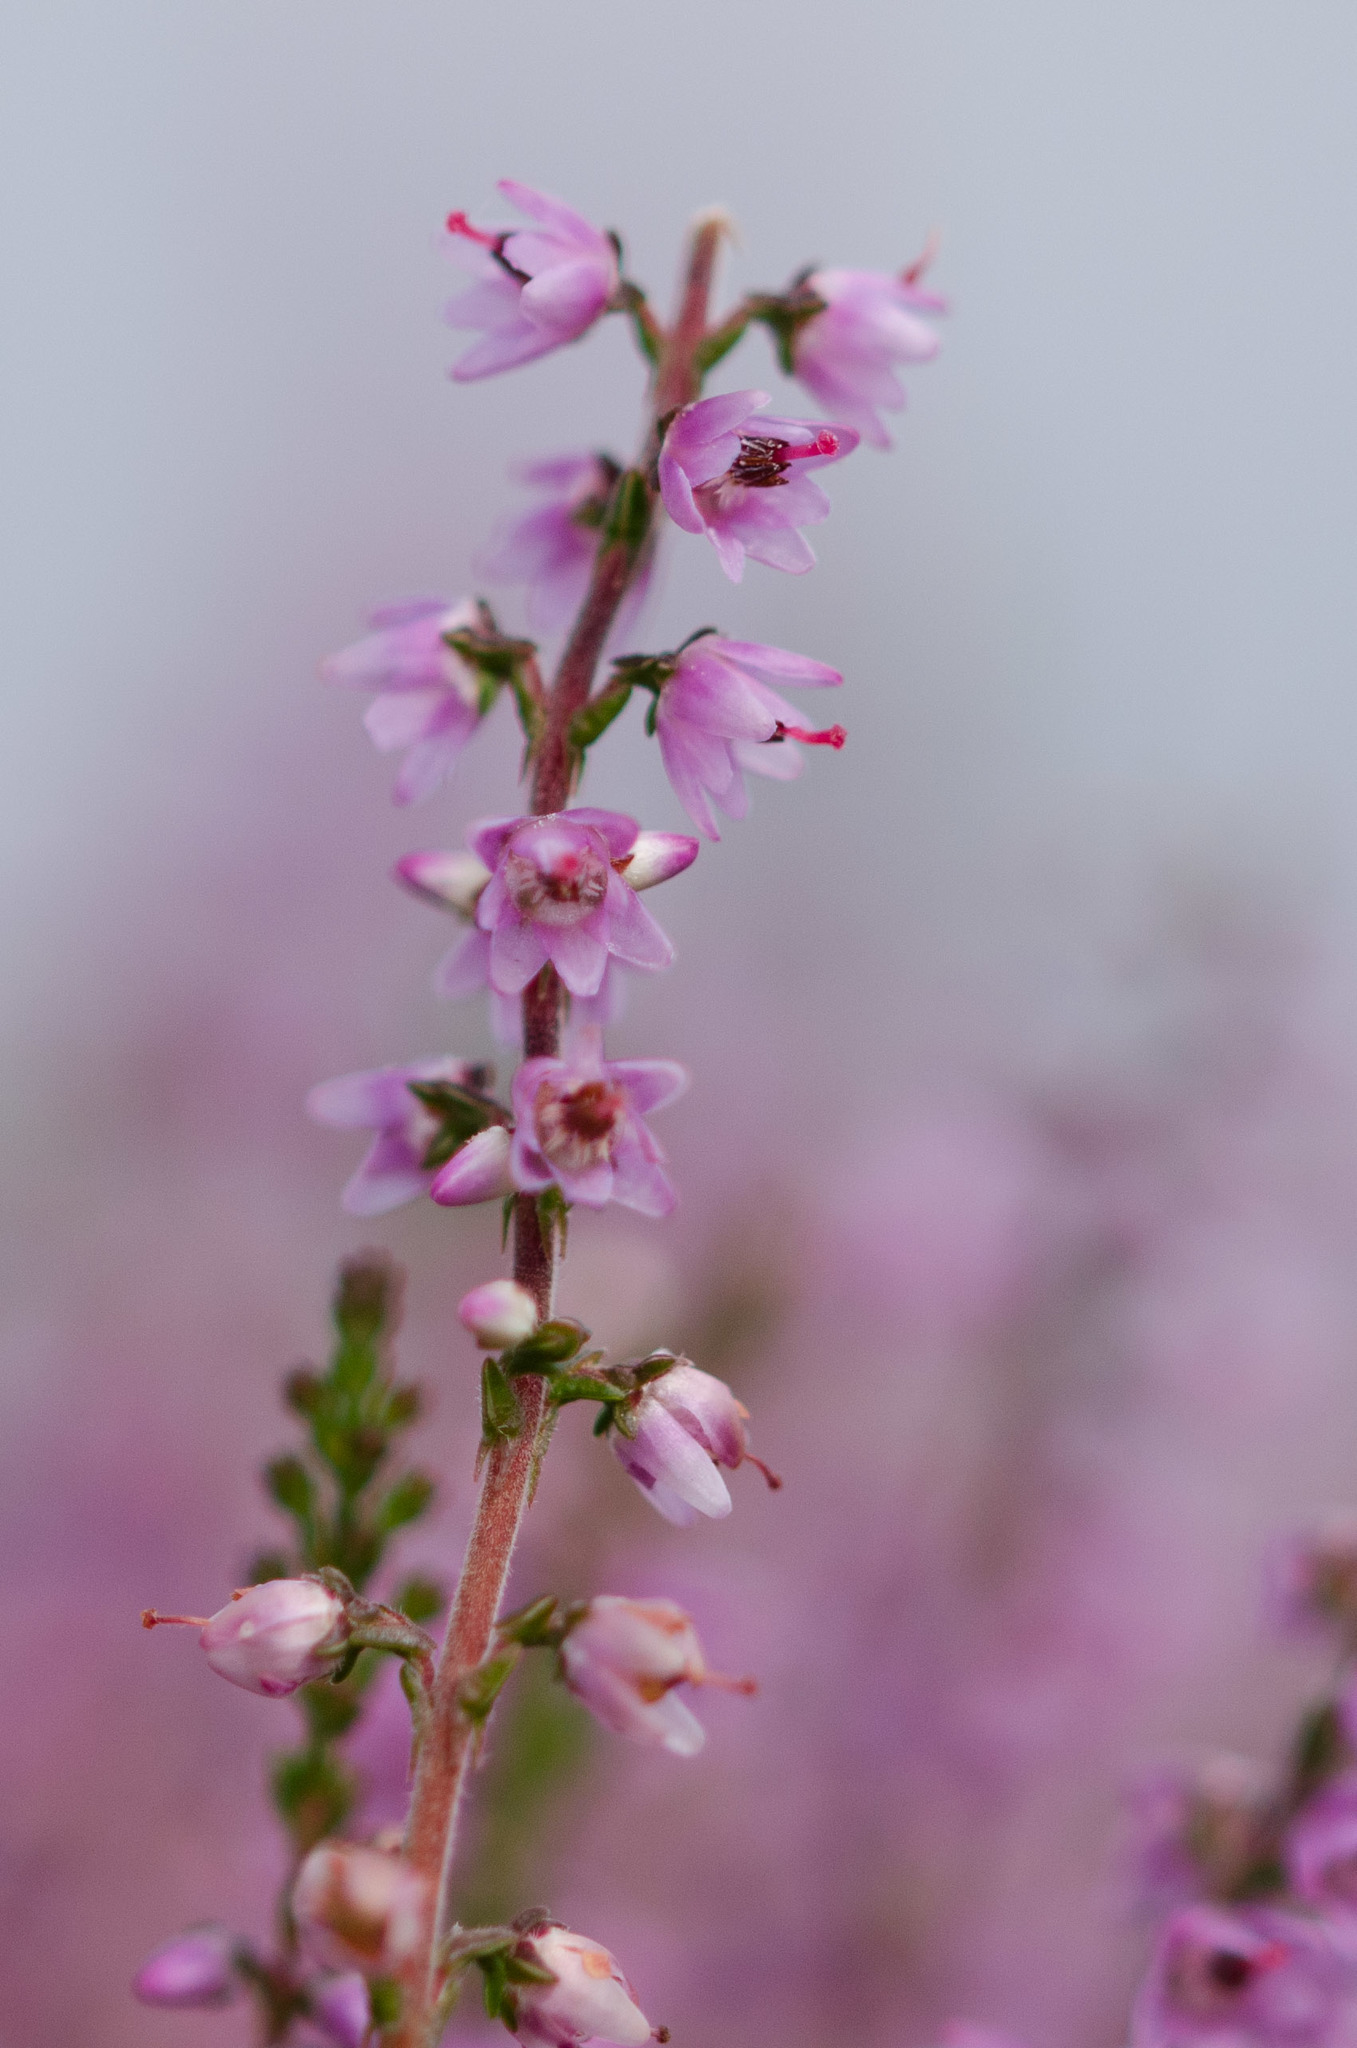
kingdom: Plantae
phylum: Tracheophyta
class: Magnoliopsida
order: Ericales
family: Ericaceae
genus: Calluna
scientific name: Calluna vulgaris
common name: Heather
